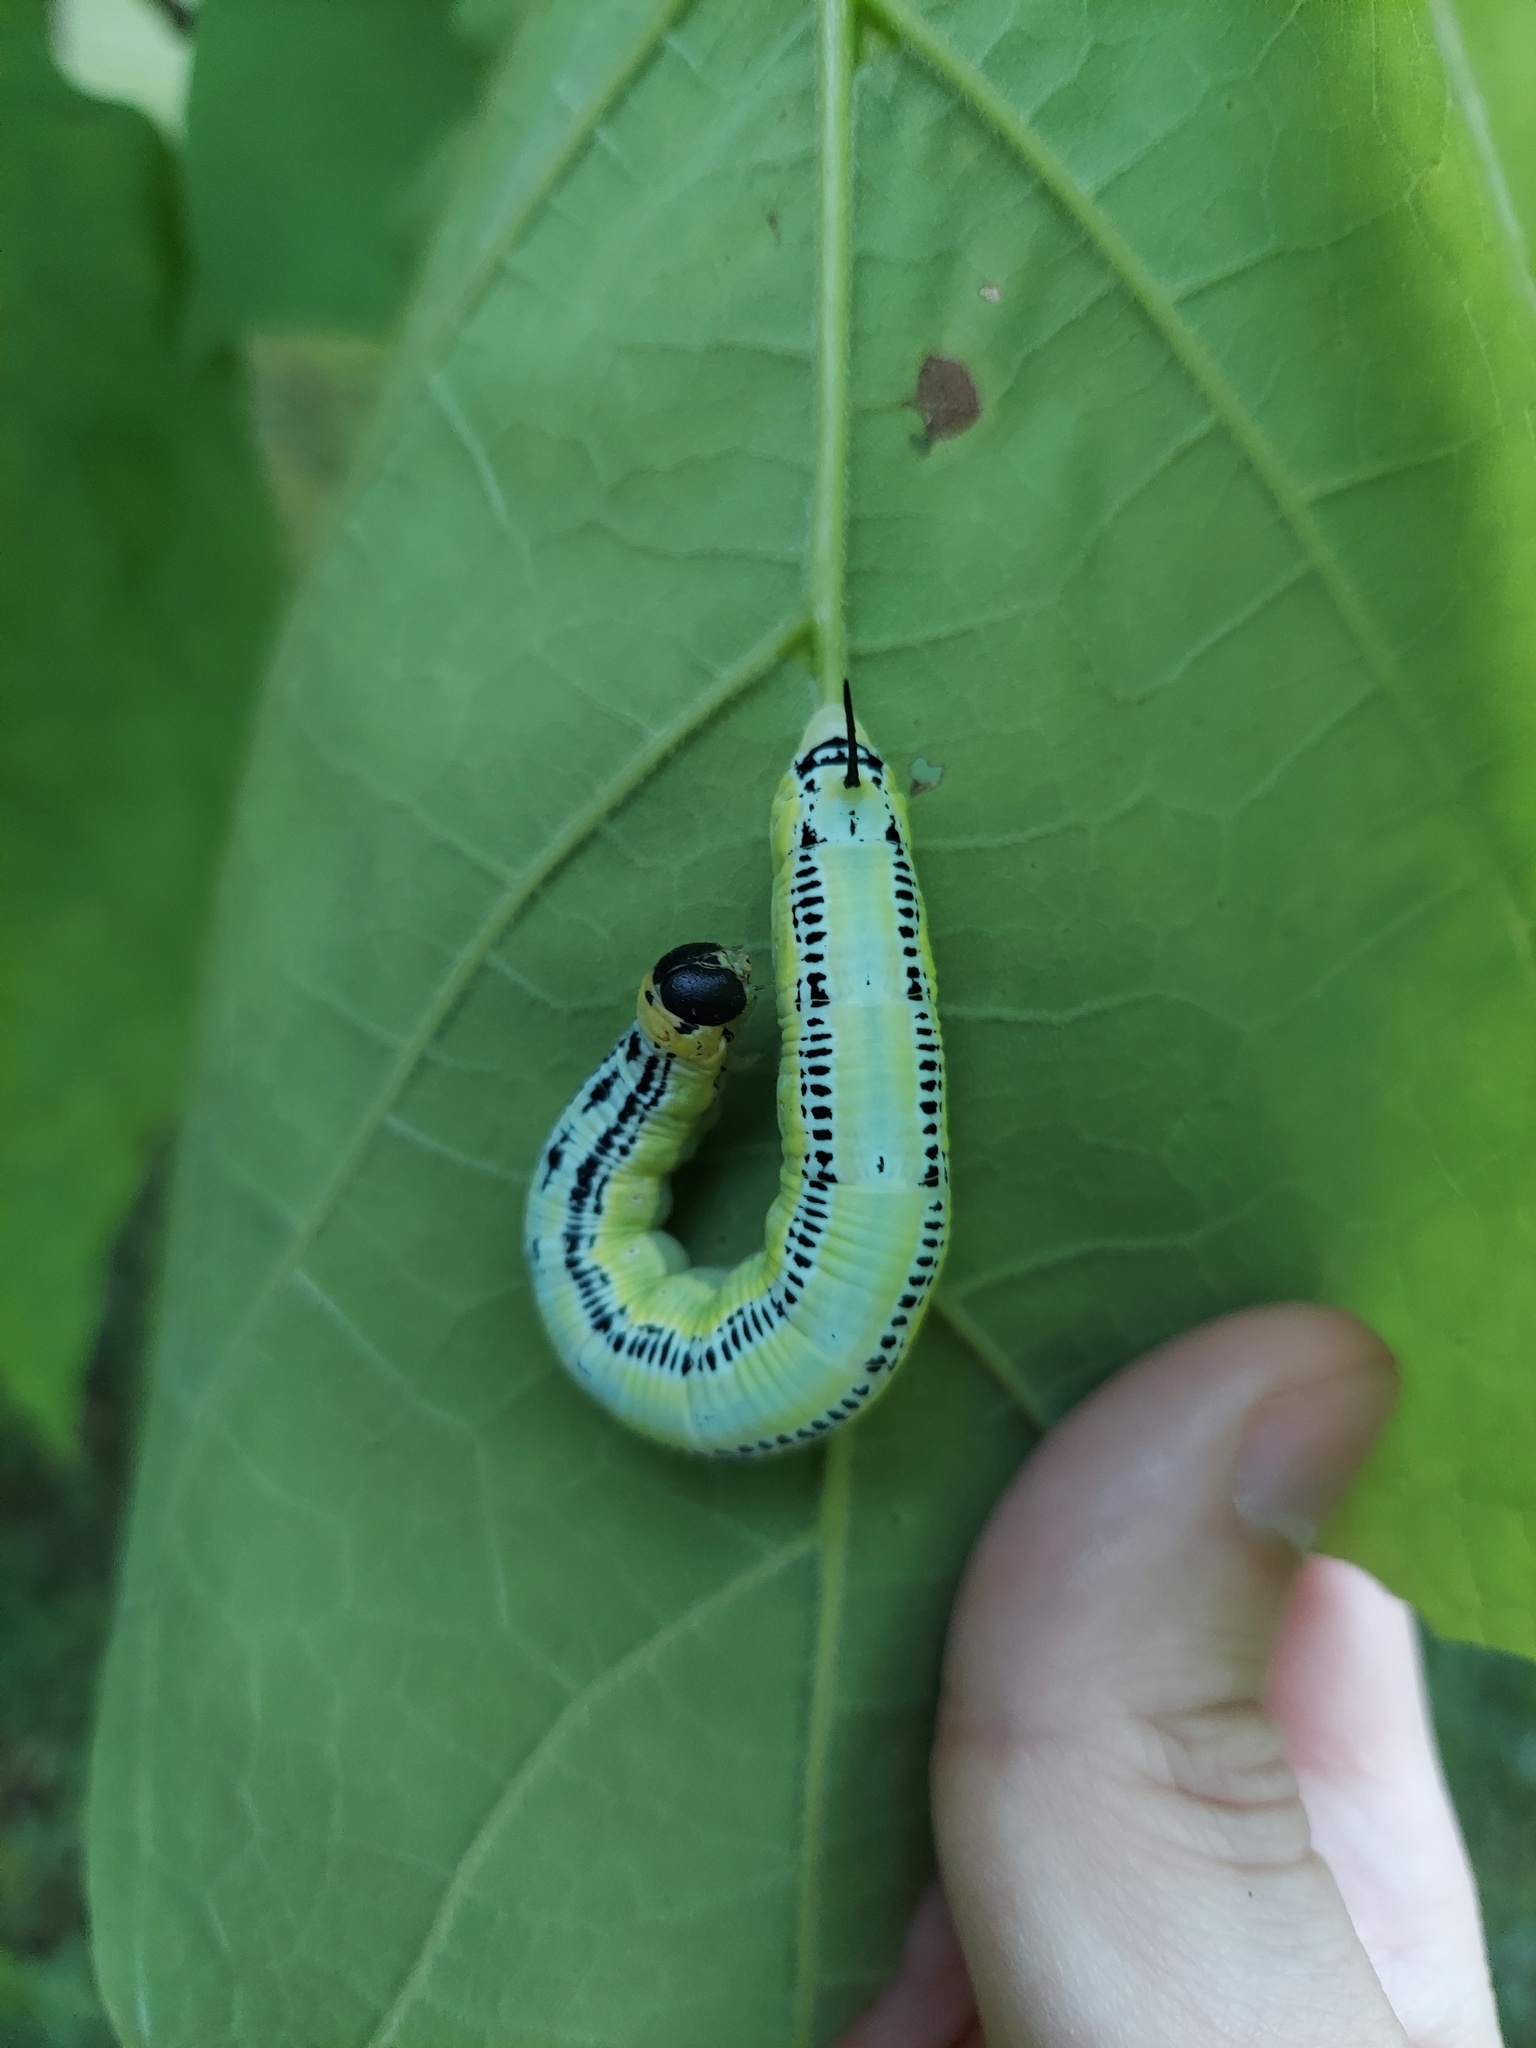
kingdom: Animalia
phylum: Arthropoda
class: Insecta
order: Lepidoptera
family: Sphingidae
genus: Ceratomia
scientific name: Ceratomia catalpae
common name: Catalpa hornworm
